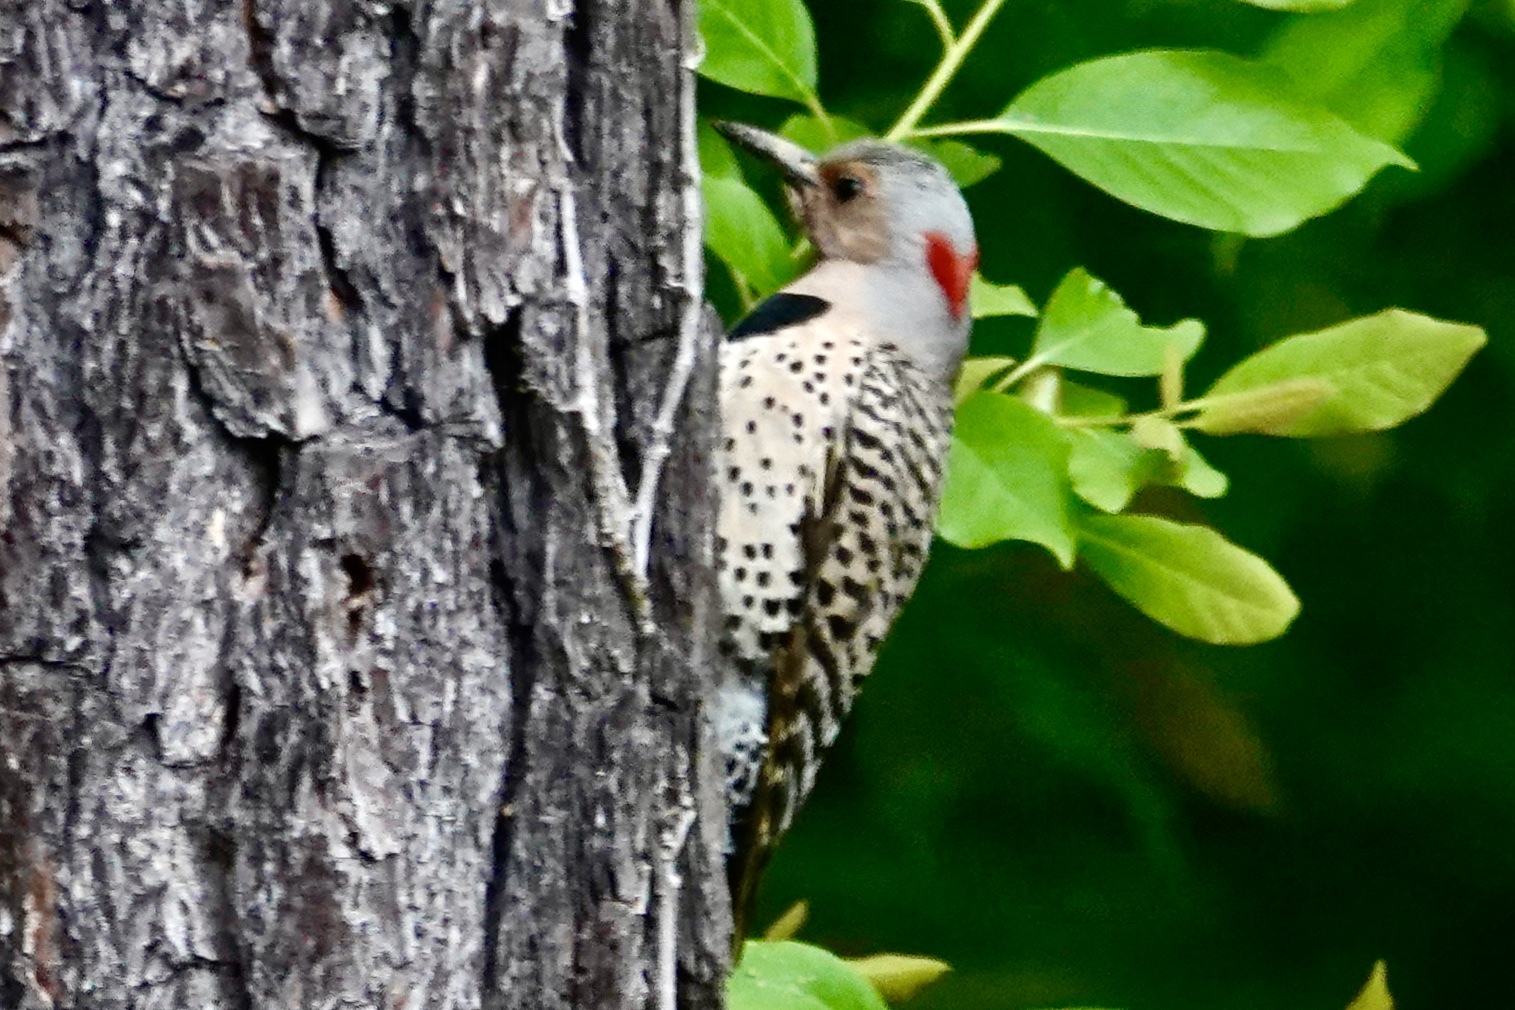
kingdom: Animalia
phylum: Chordata
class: Aves
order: Piciformes
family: Picidae
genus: Colaptes
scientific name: Colaptes auratus
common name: Northern flicker
